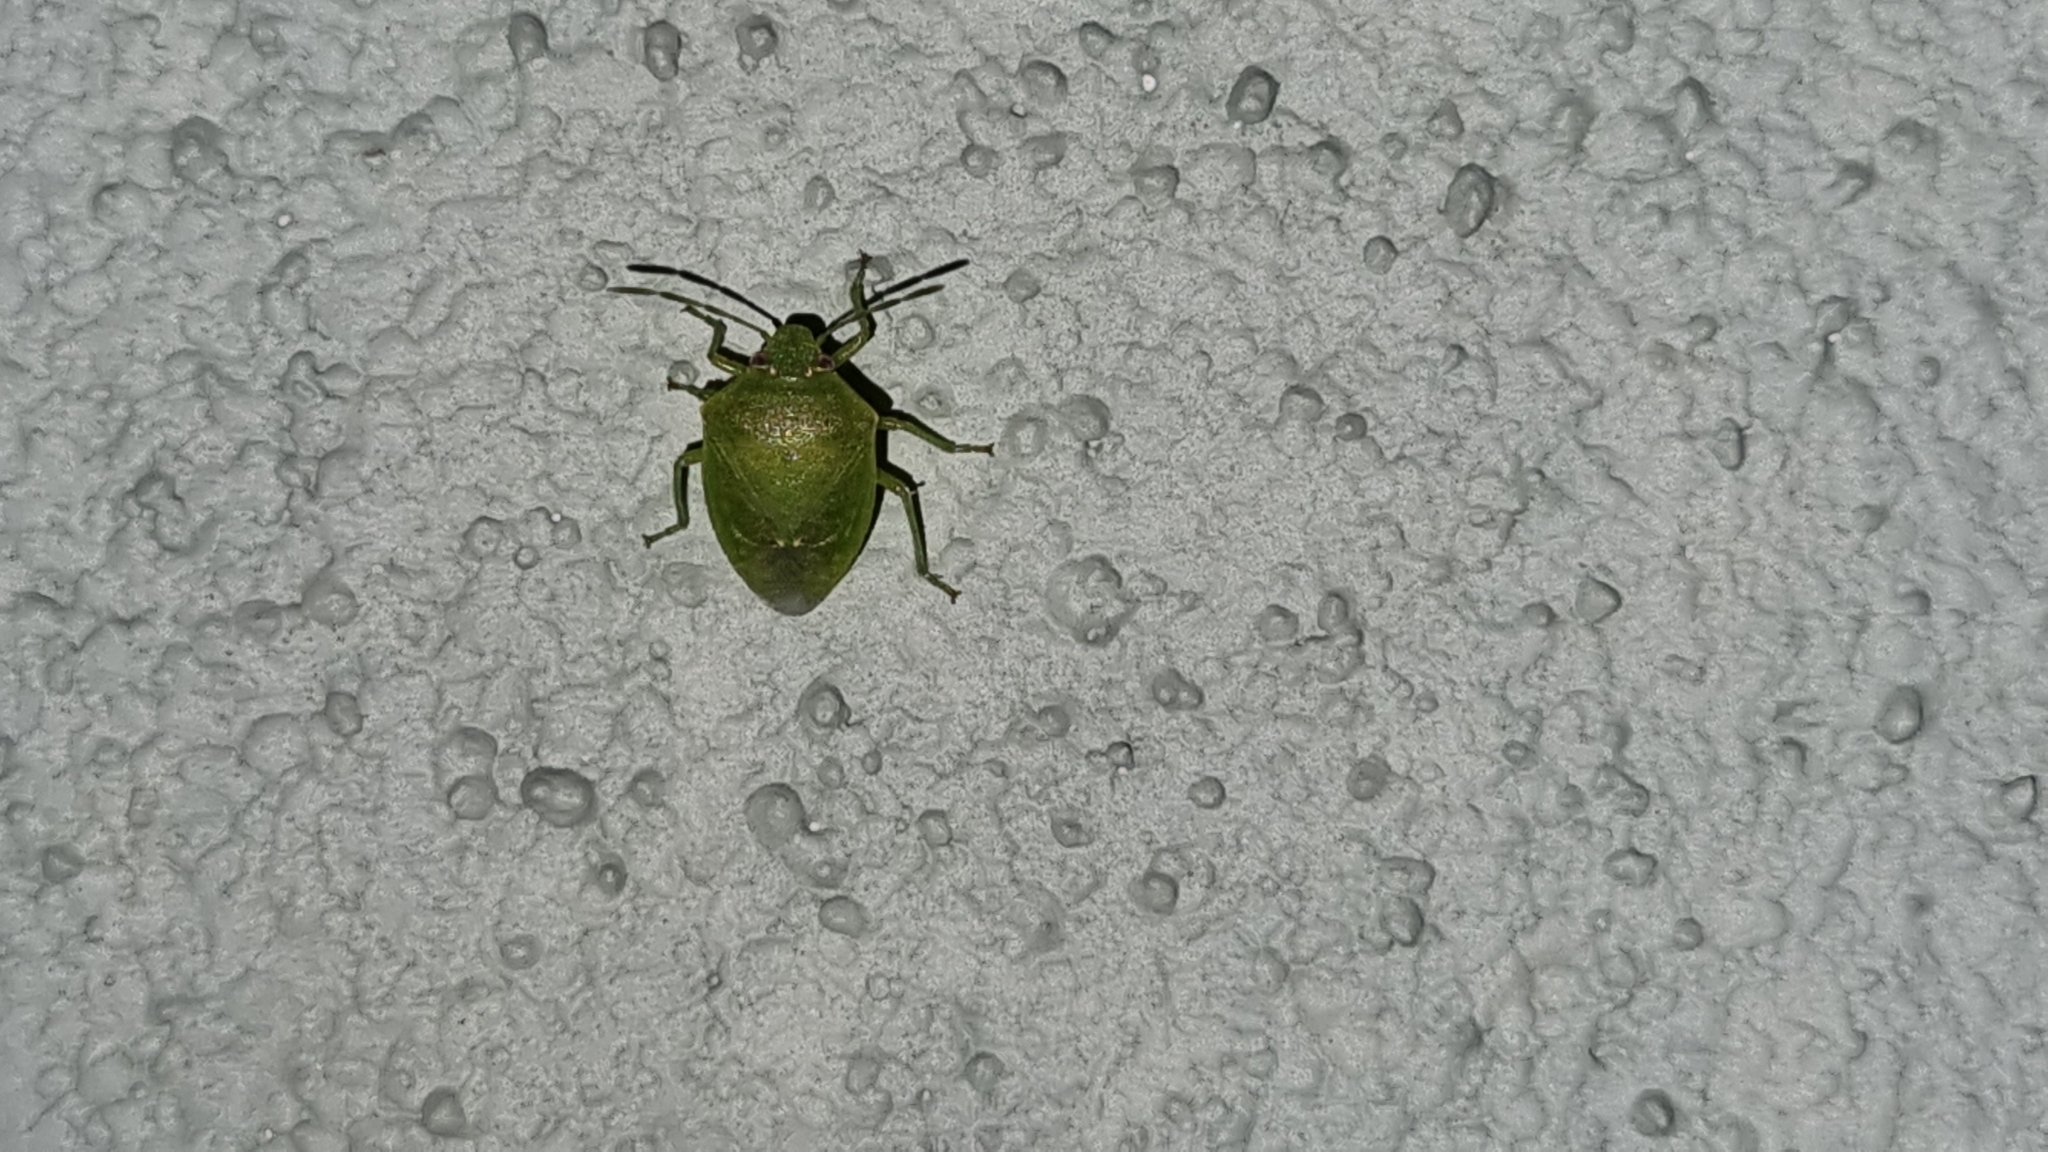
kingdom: Animalia
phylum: Arthropoda
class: Insecta
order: Hemiptera
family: Pentatomidae
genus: Acrosternum
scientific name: Acrosternum gramineum
